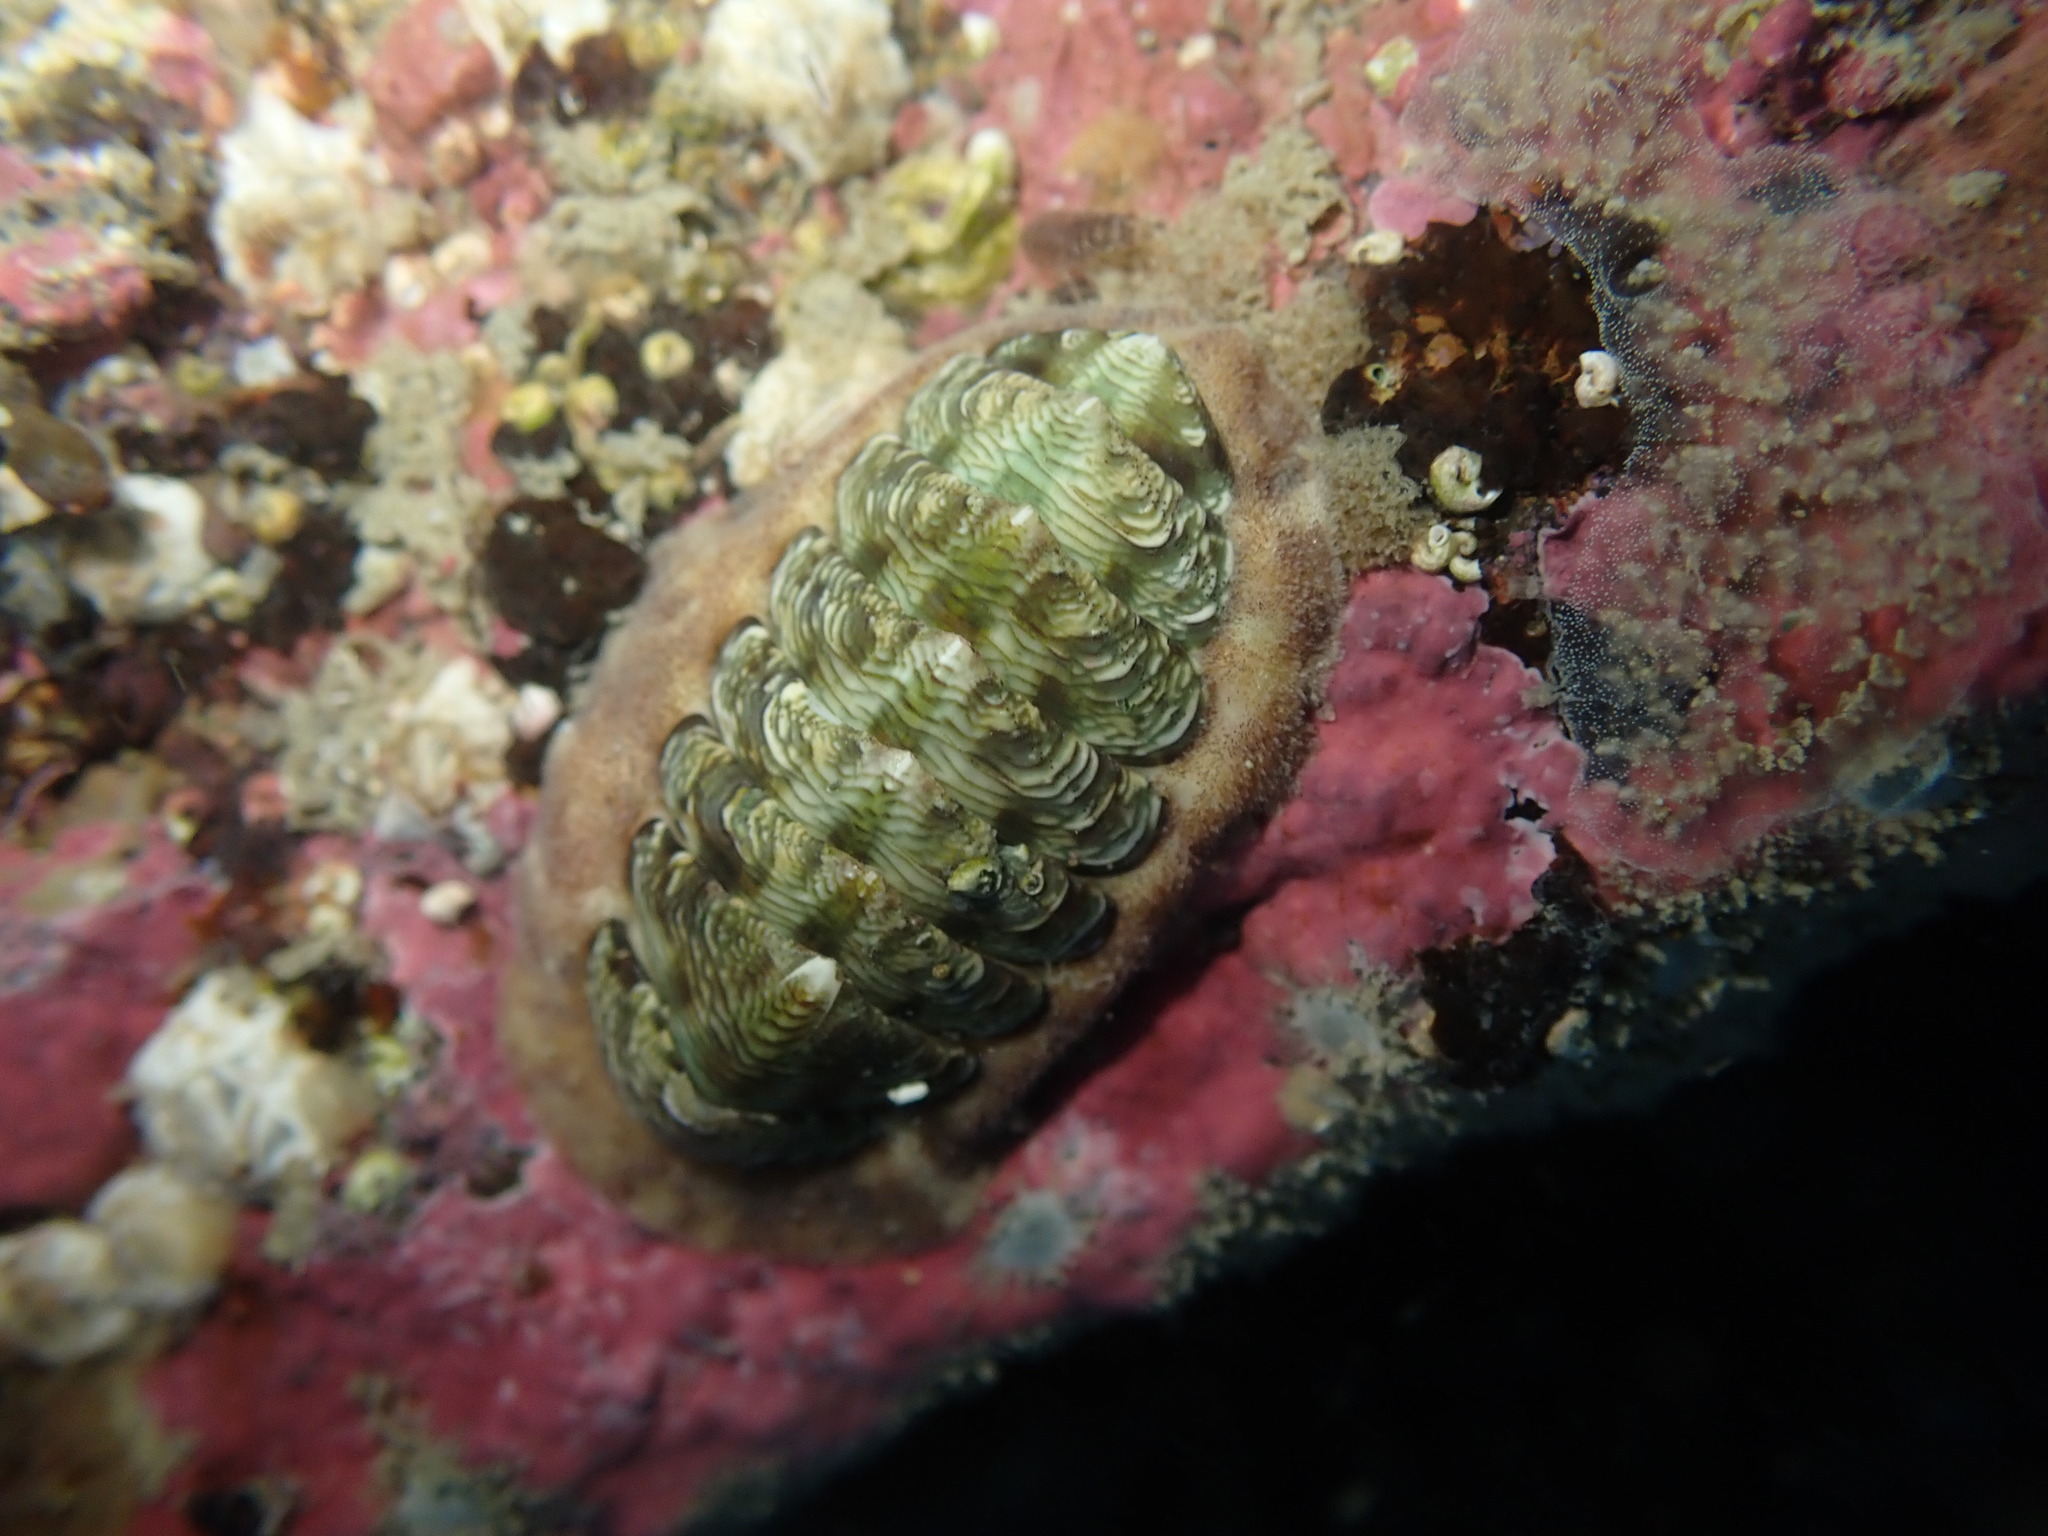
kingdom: Animalia
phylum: Mollusca
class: Polyplacophora
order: Chitonida
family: Chitonidae
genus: Onithochiton
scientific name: Onithochiton neglectus
